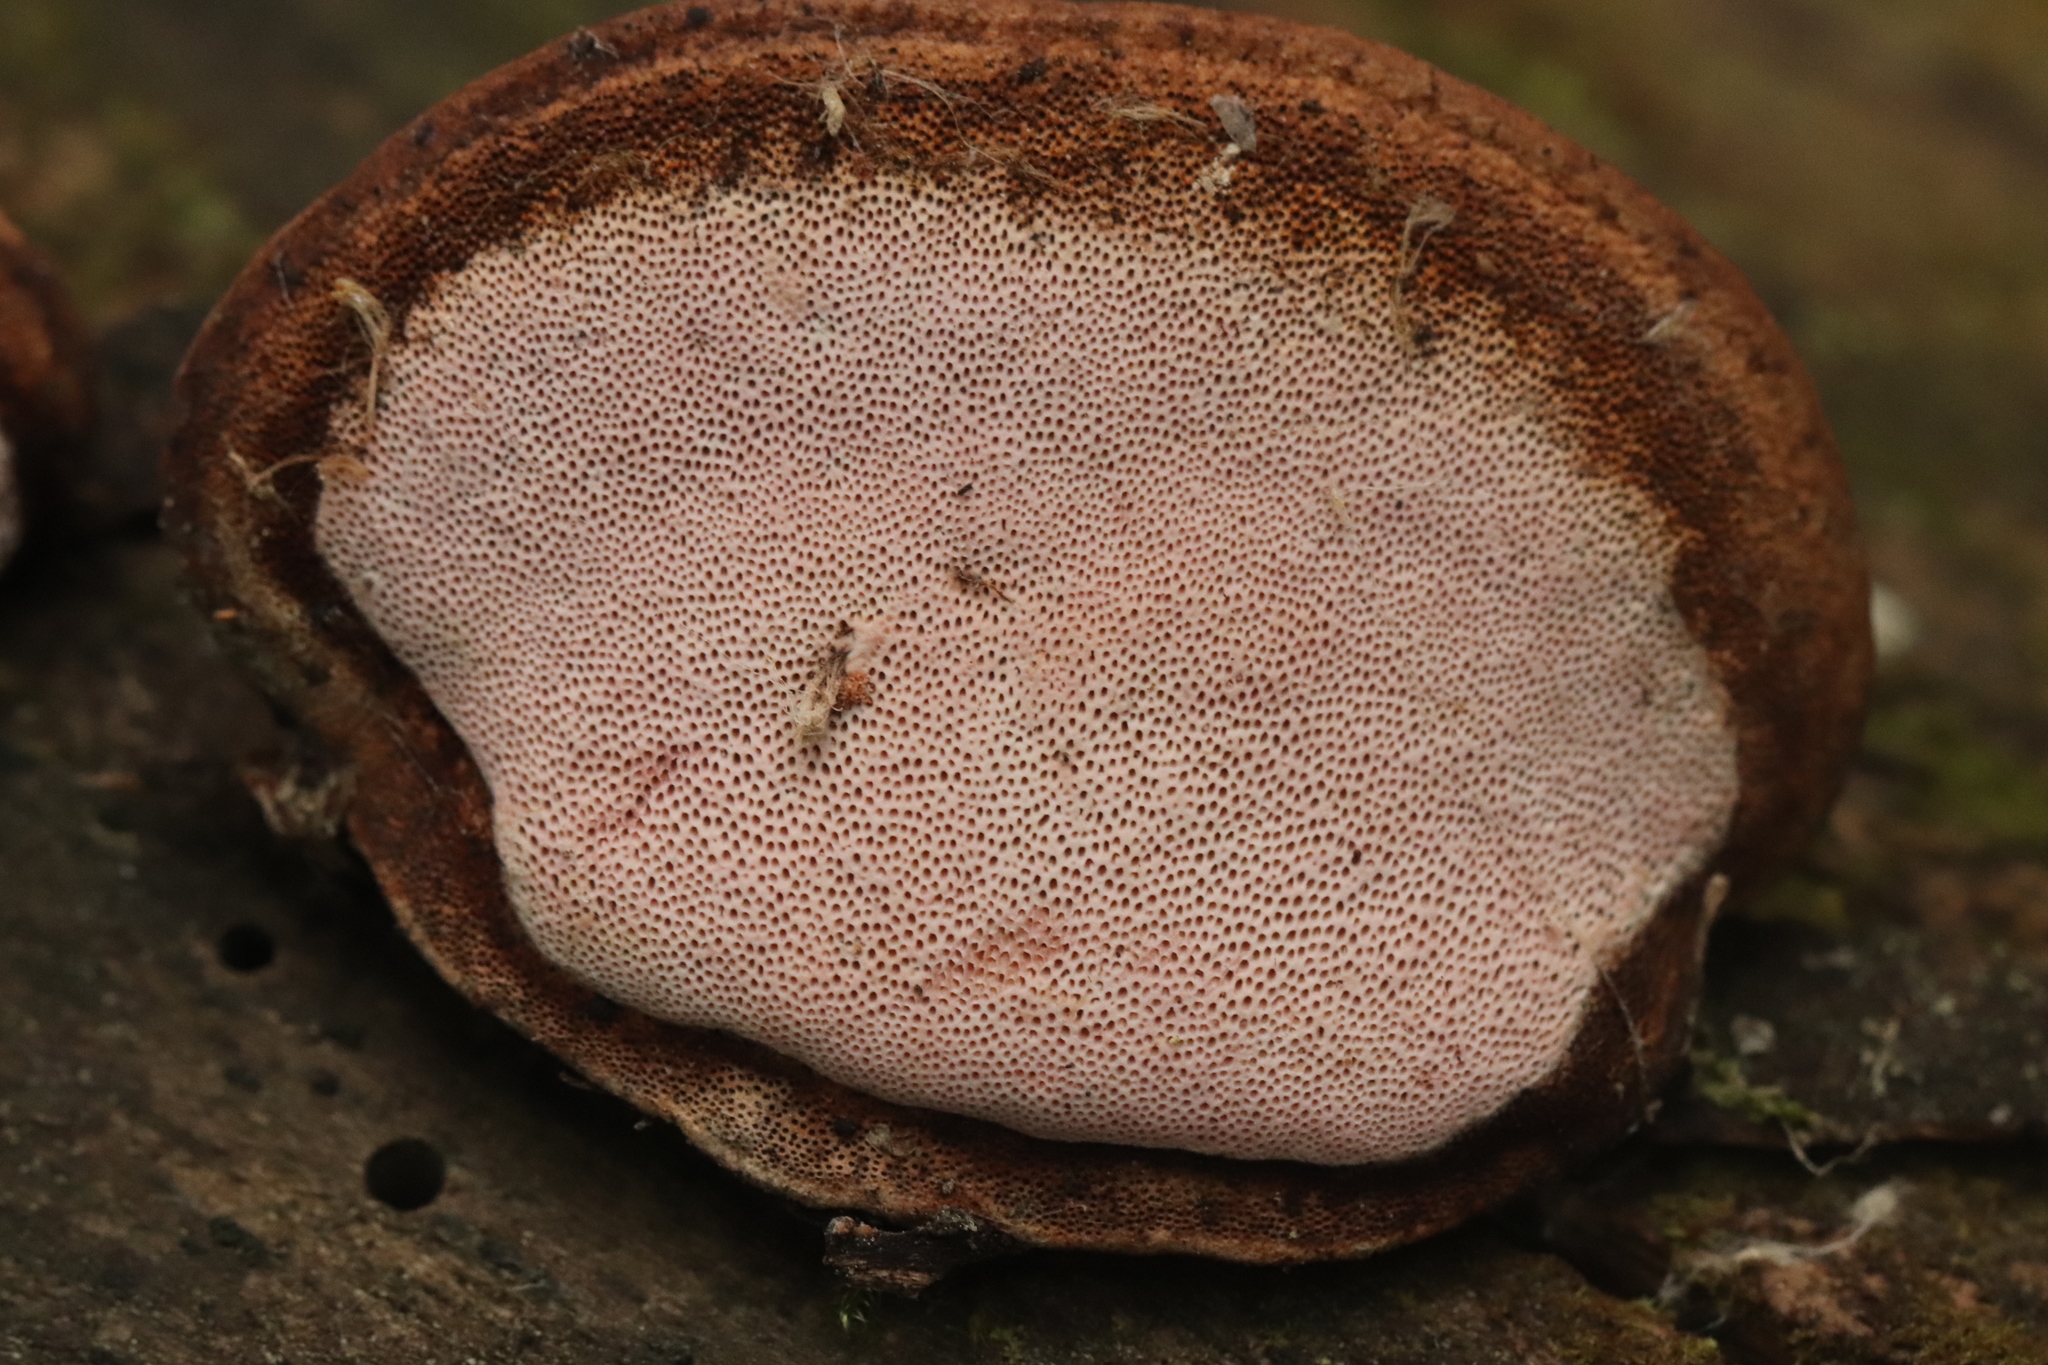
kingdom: Fungi
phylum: Basidiomycota
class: Agaricomycetes
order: Polyporales
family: Fomitopsidaceae
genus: Rhodofomes
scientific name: Rhodofomes roseus
